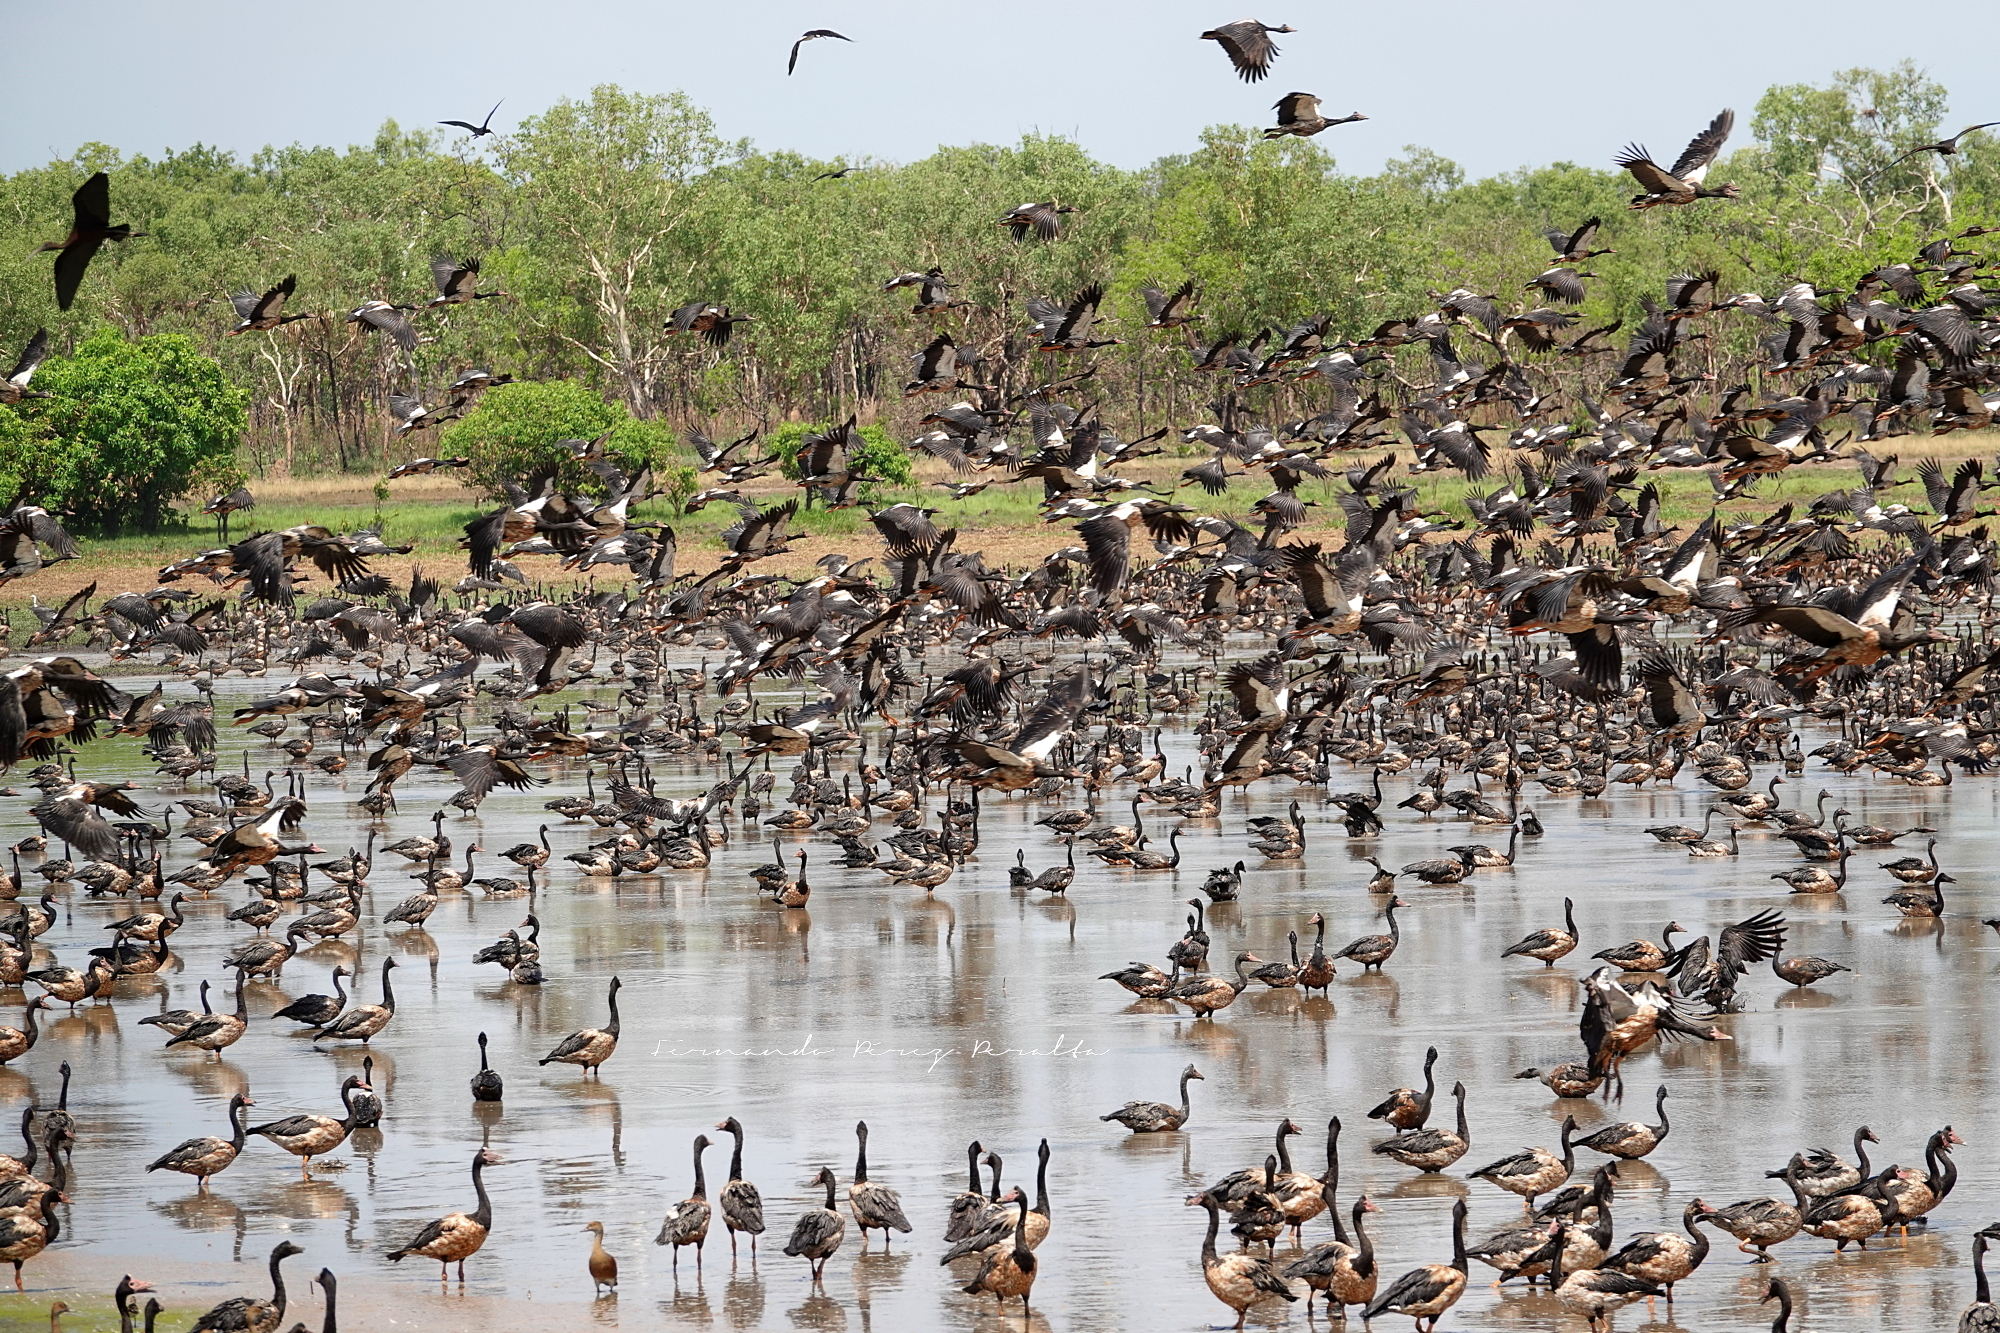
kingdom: Animalia
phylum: Chordata
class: Aves
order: Anseriformes
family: Anseranatidae
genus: Anseranas
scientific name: Anseranas semipalmata
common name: Magpie goose
